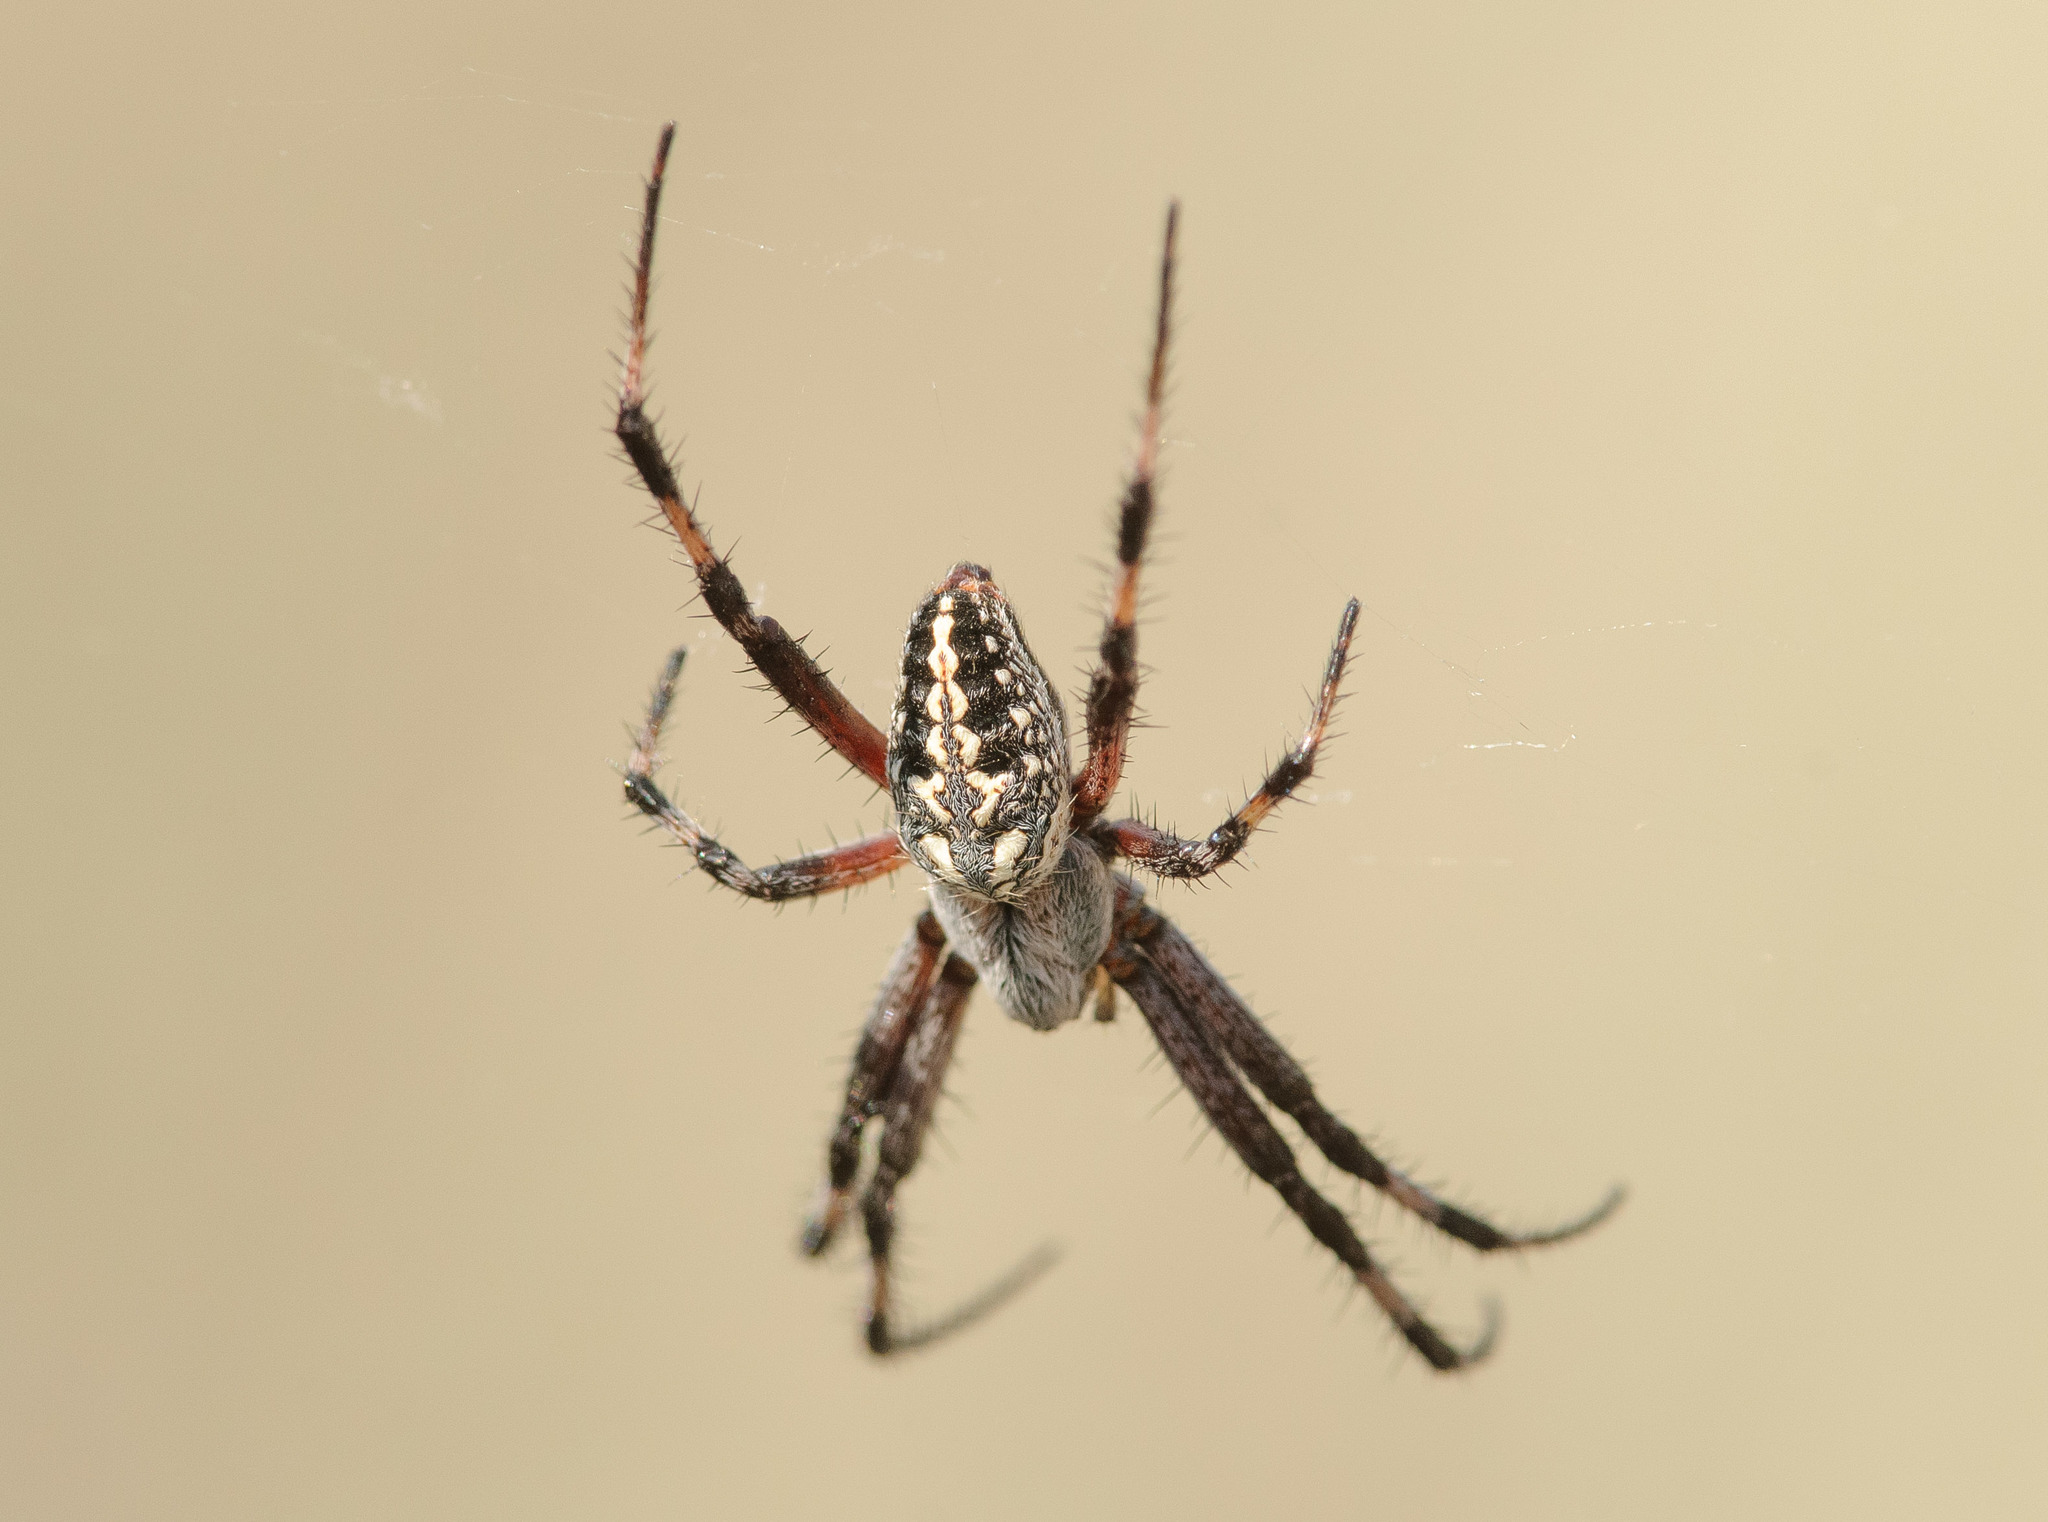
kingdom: Animalia
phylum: Arthropoda
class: Arachnida
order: Araneae
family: Araneidae
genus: Neoscona
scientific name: Neoscona oaxacensis
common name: Orb weavers
